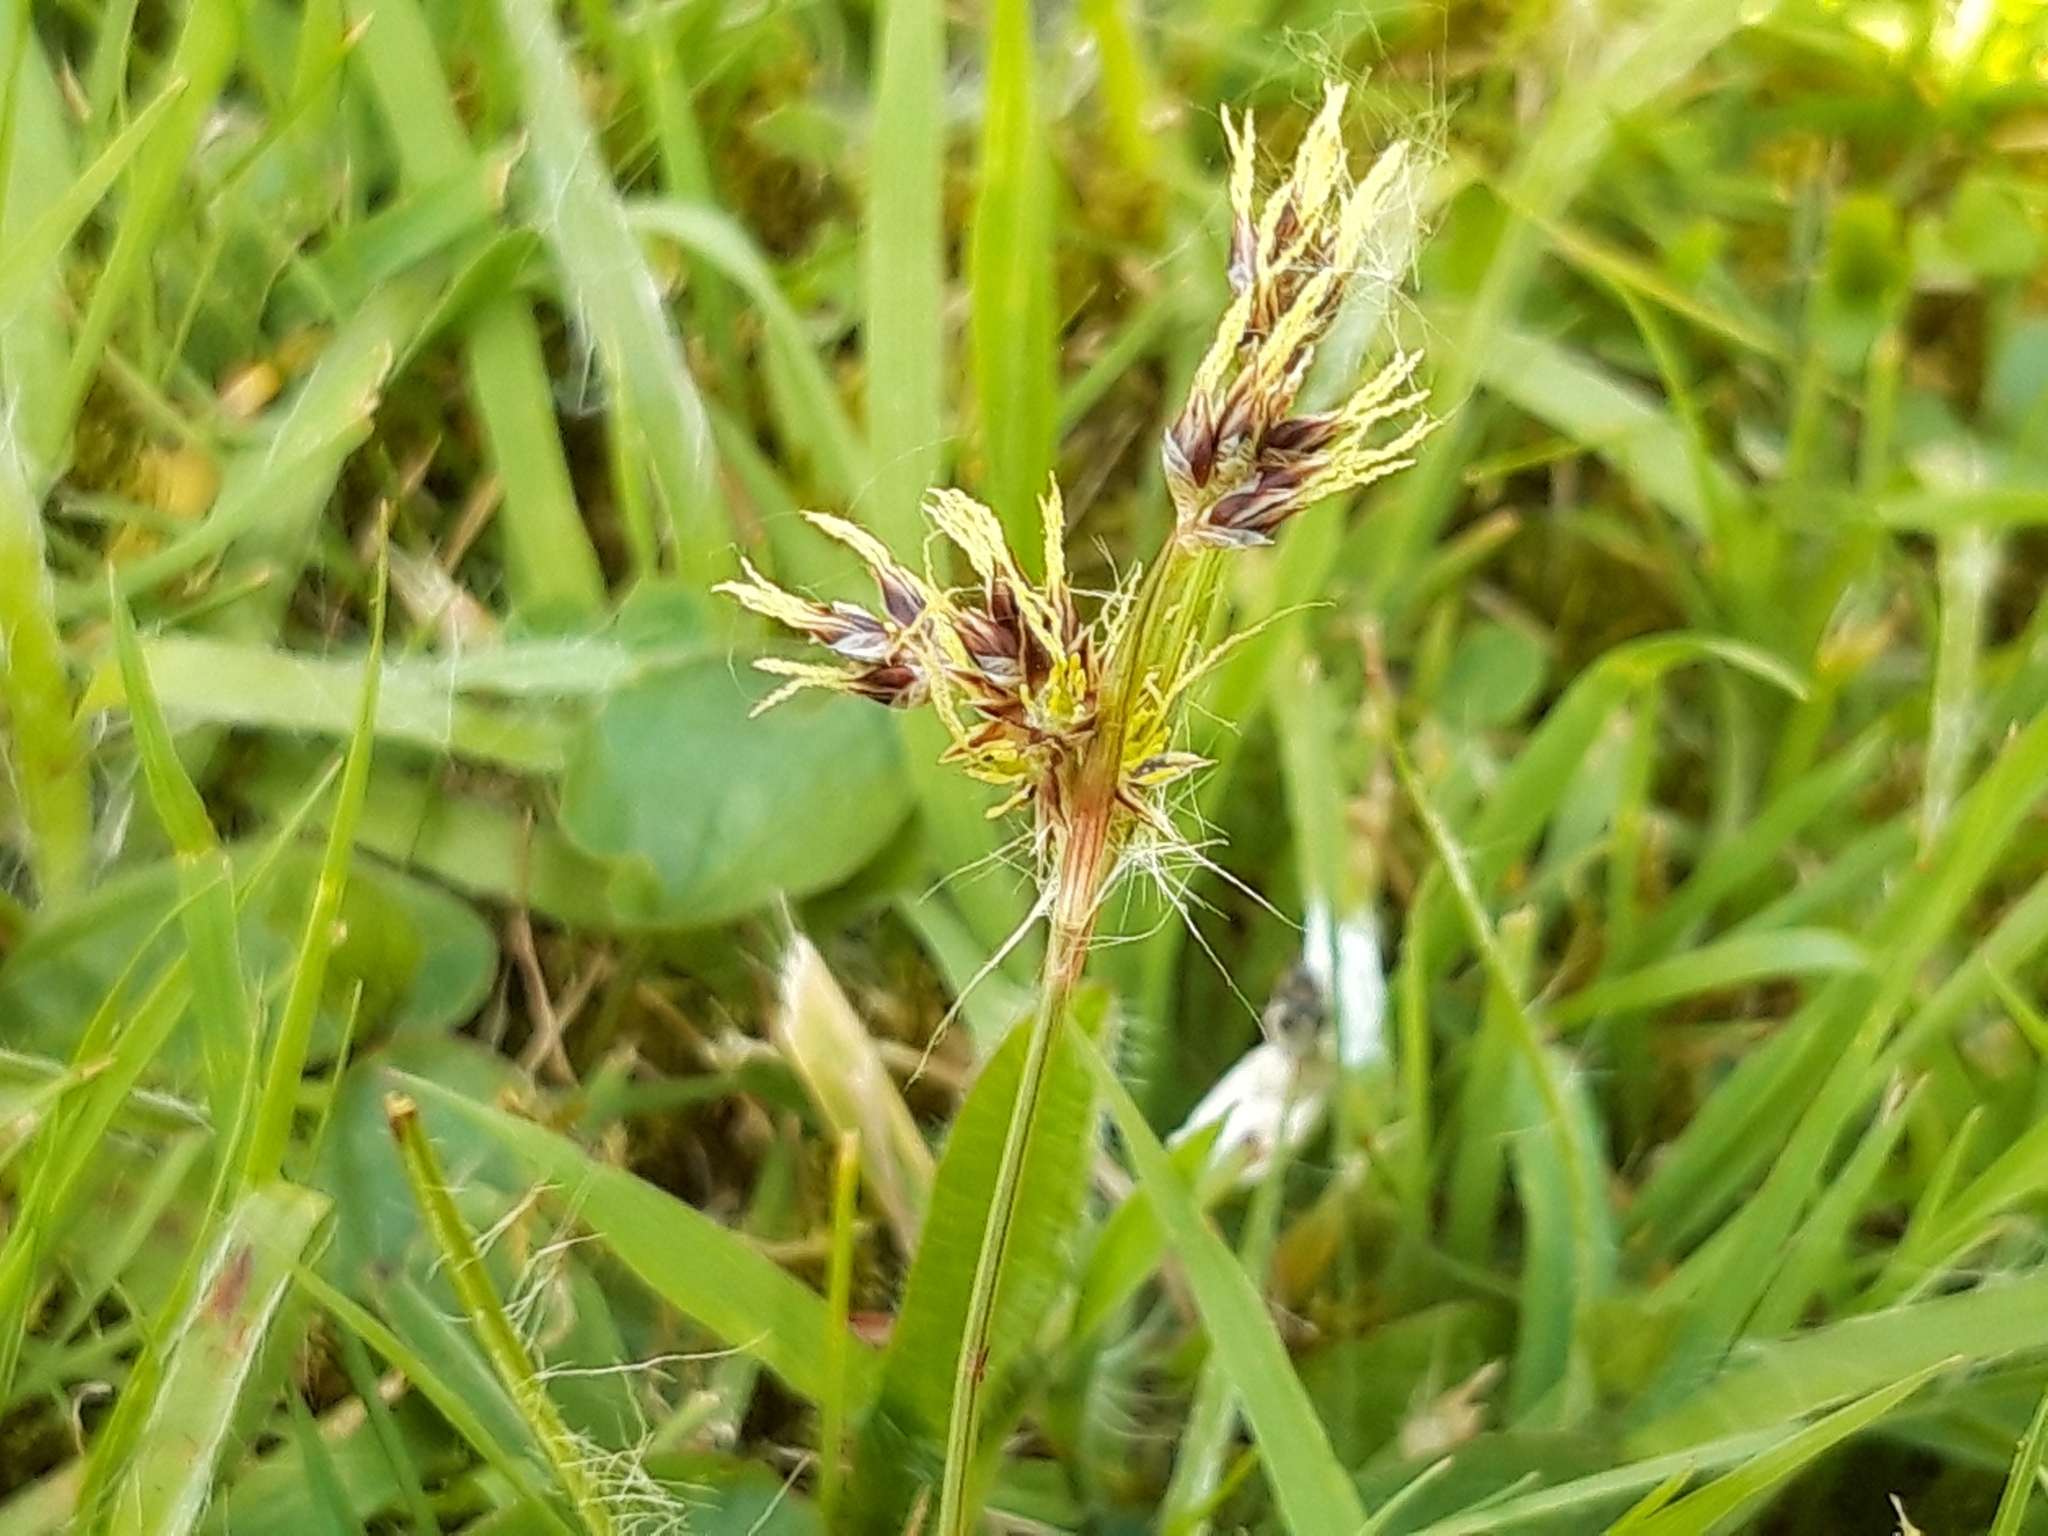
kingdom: Plantae
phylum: Tracheophyta
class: Liliopsida
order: Poales
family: Juncaceae
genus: Luzula
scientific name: Luzula campestris
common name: Field wood-rush
